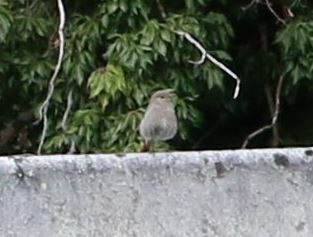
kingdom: Animalia
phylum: Chordata
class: Aves
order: Passeriformes
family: Muscicapidae
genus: Phoenicurus
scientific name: Phoenicurus ochruros
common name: Black redstart
